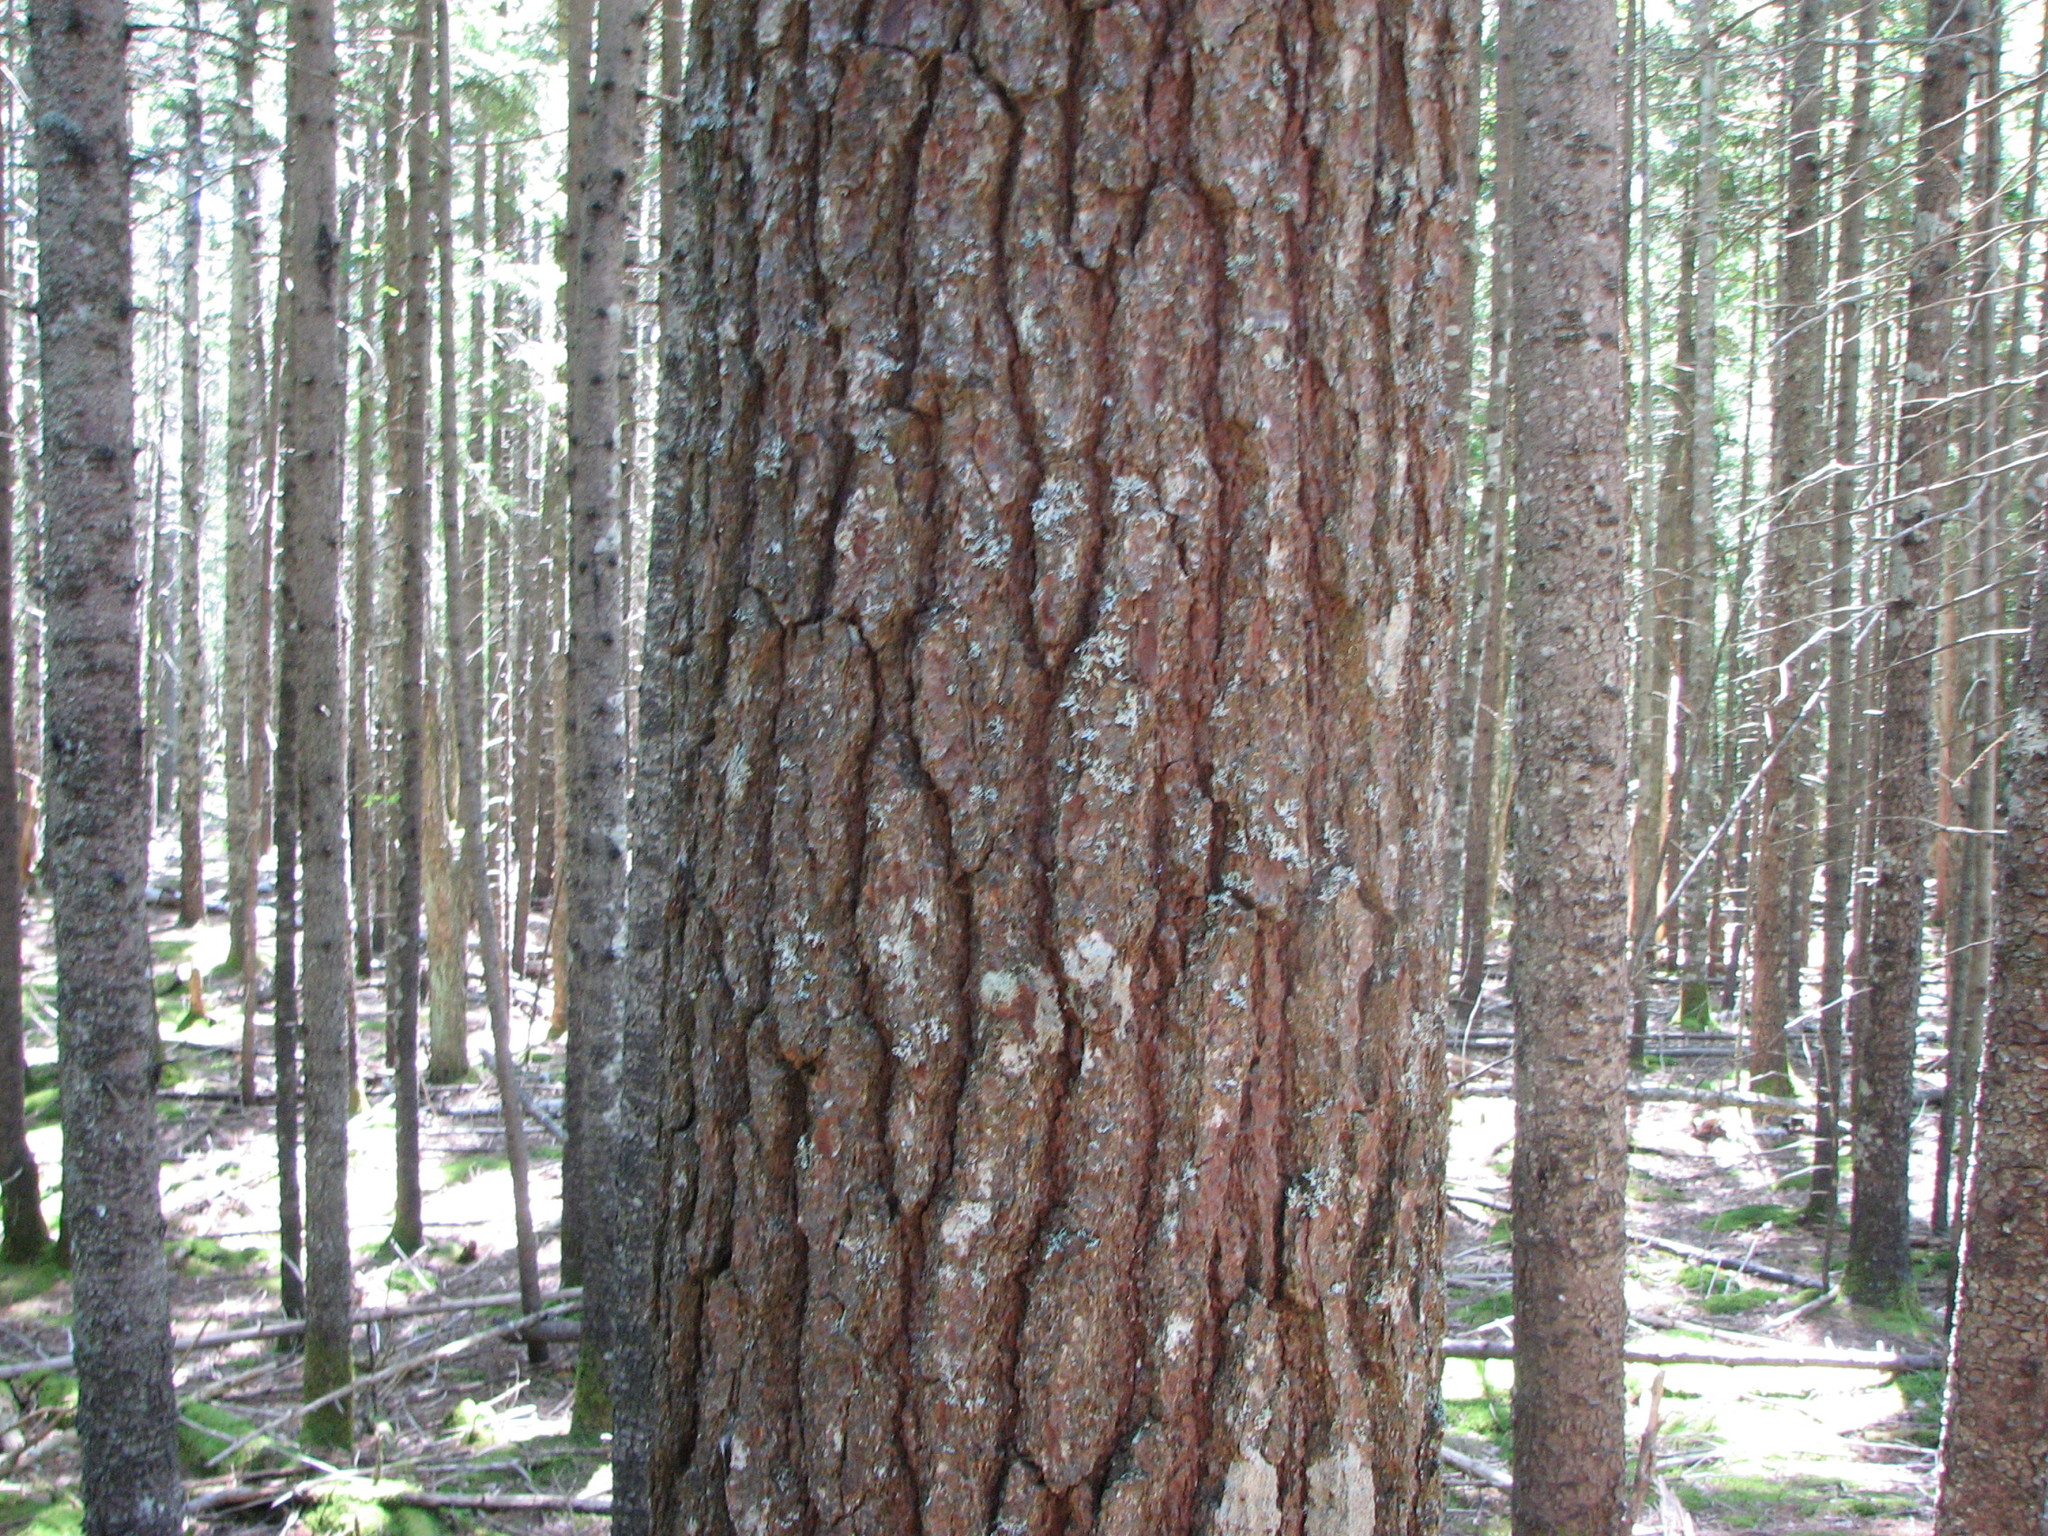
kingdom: Plantae
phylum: Tracheophyta
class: Pinopsida
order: Pinales
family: Pinaceae
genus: Pinus
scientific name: Pinus strobus
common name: Weymouth pine
